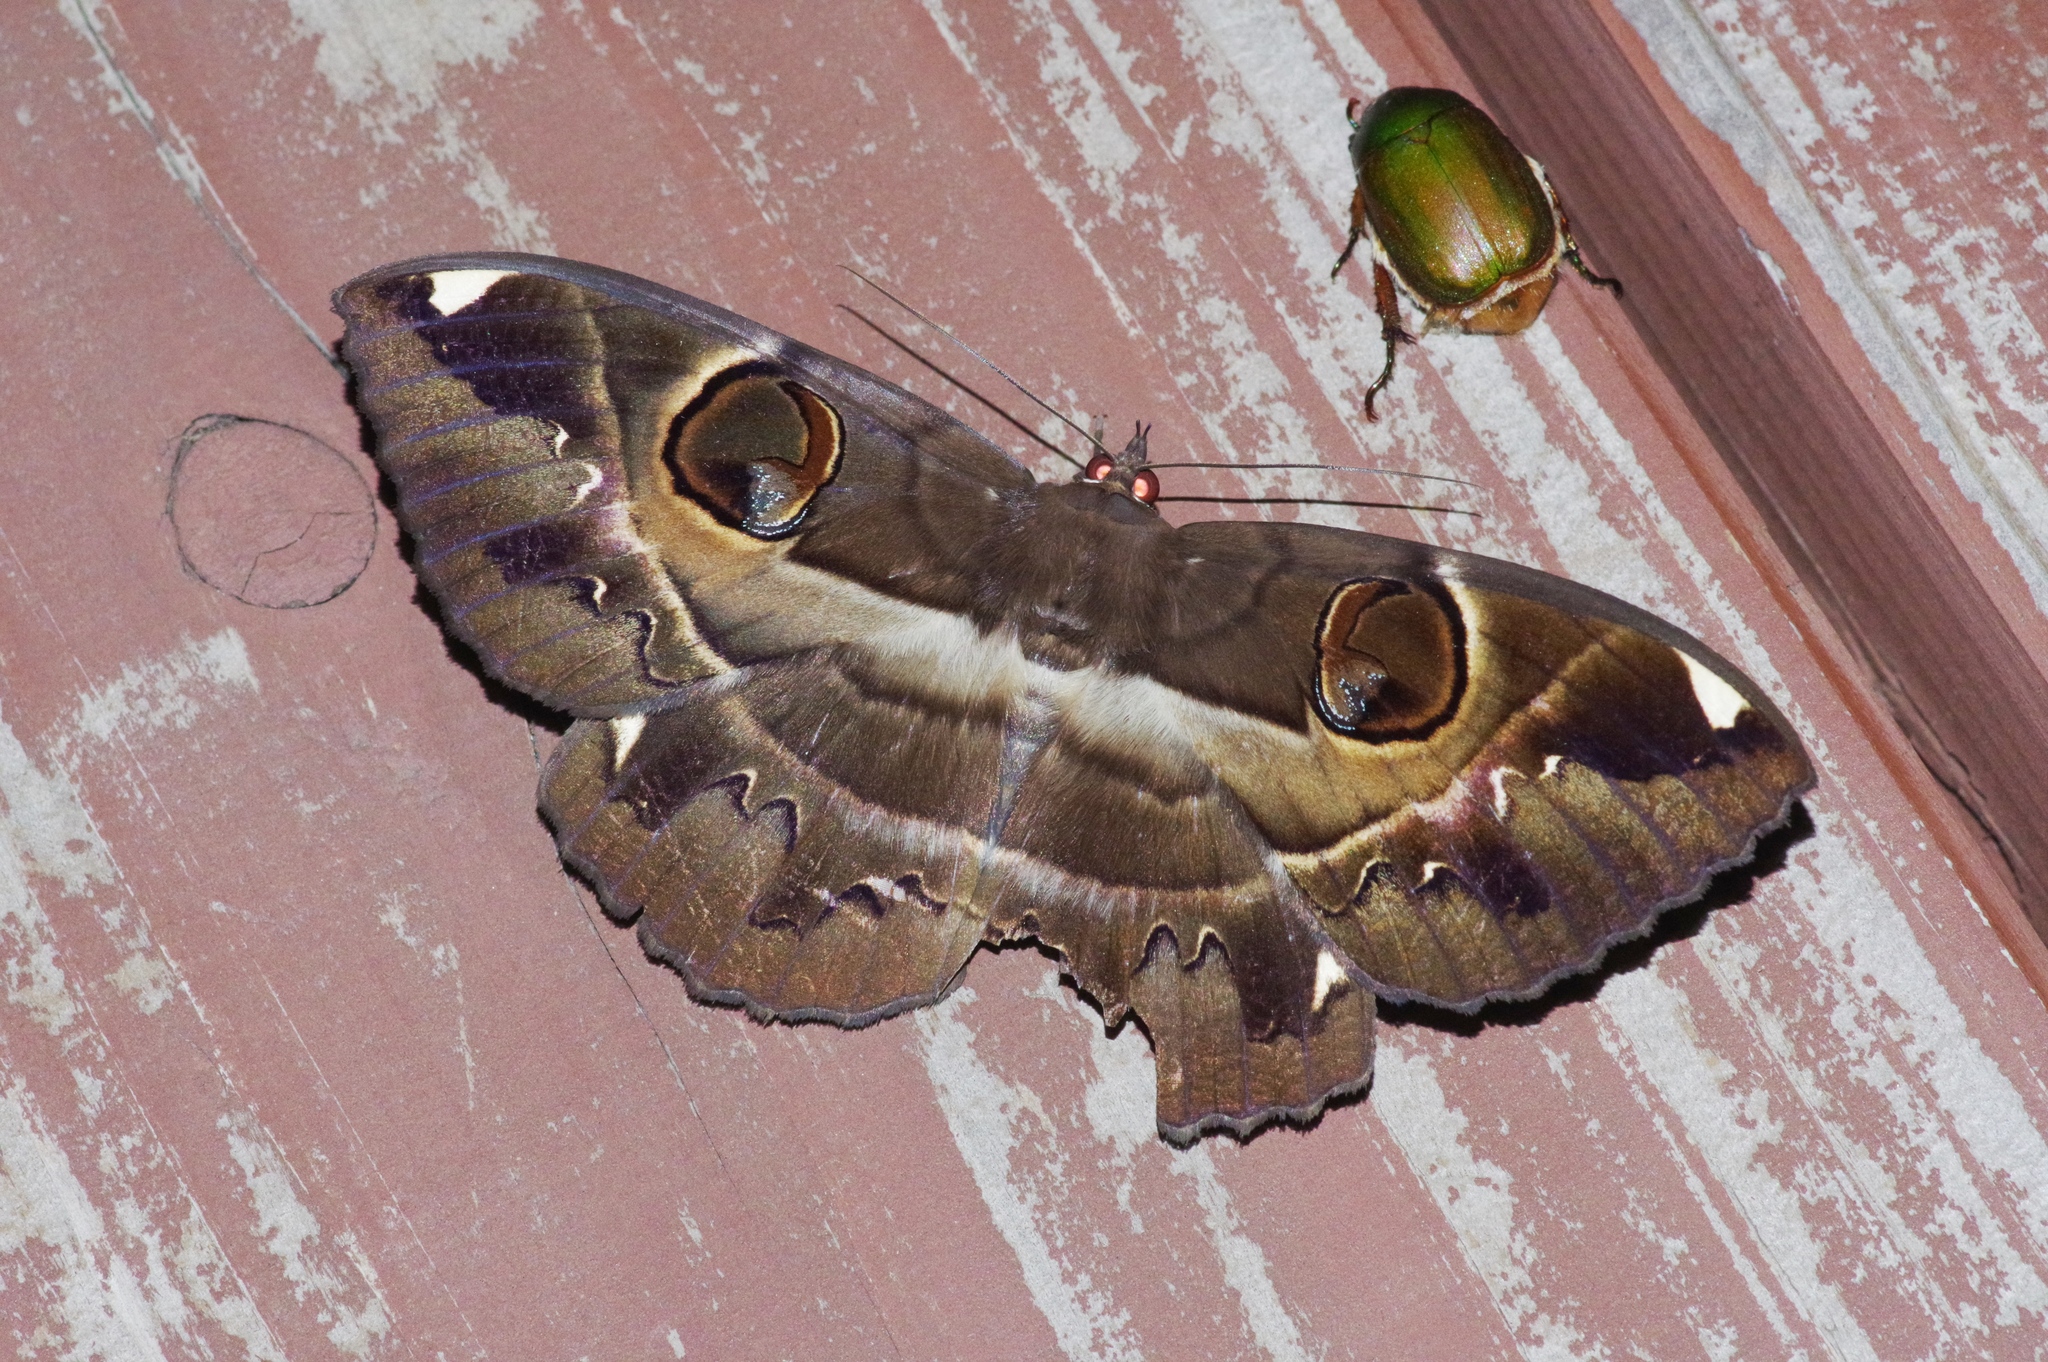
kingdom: Animalia
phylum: Arthropoda
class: Insecta
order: Lepidoptera
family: Erebidae
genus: Erebus
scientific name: Erebus ephesperis
